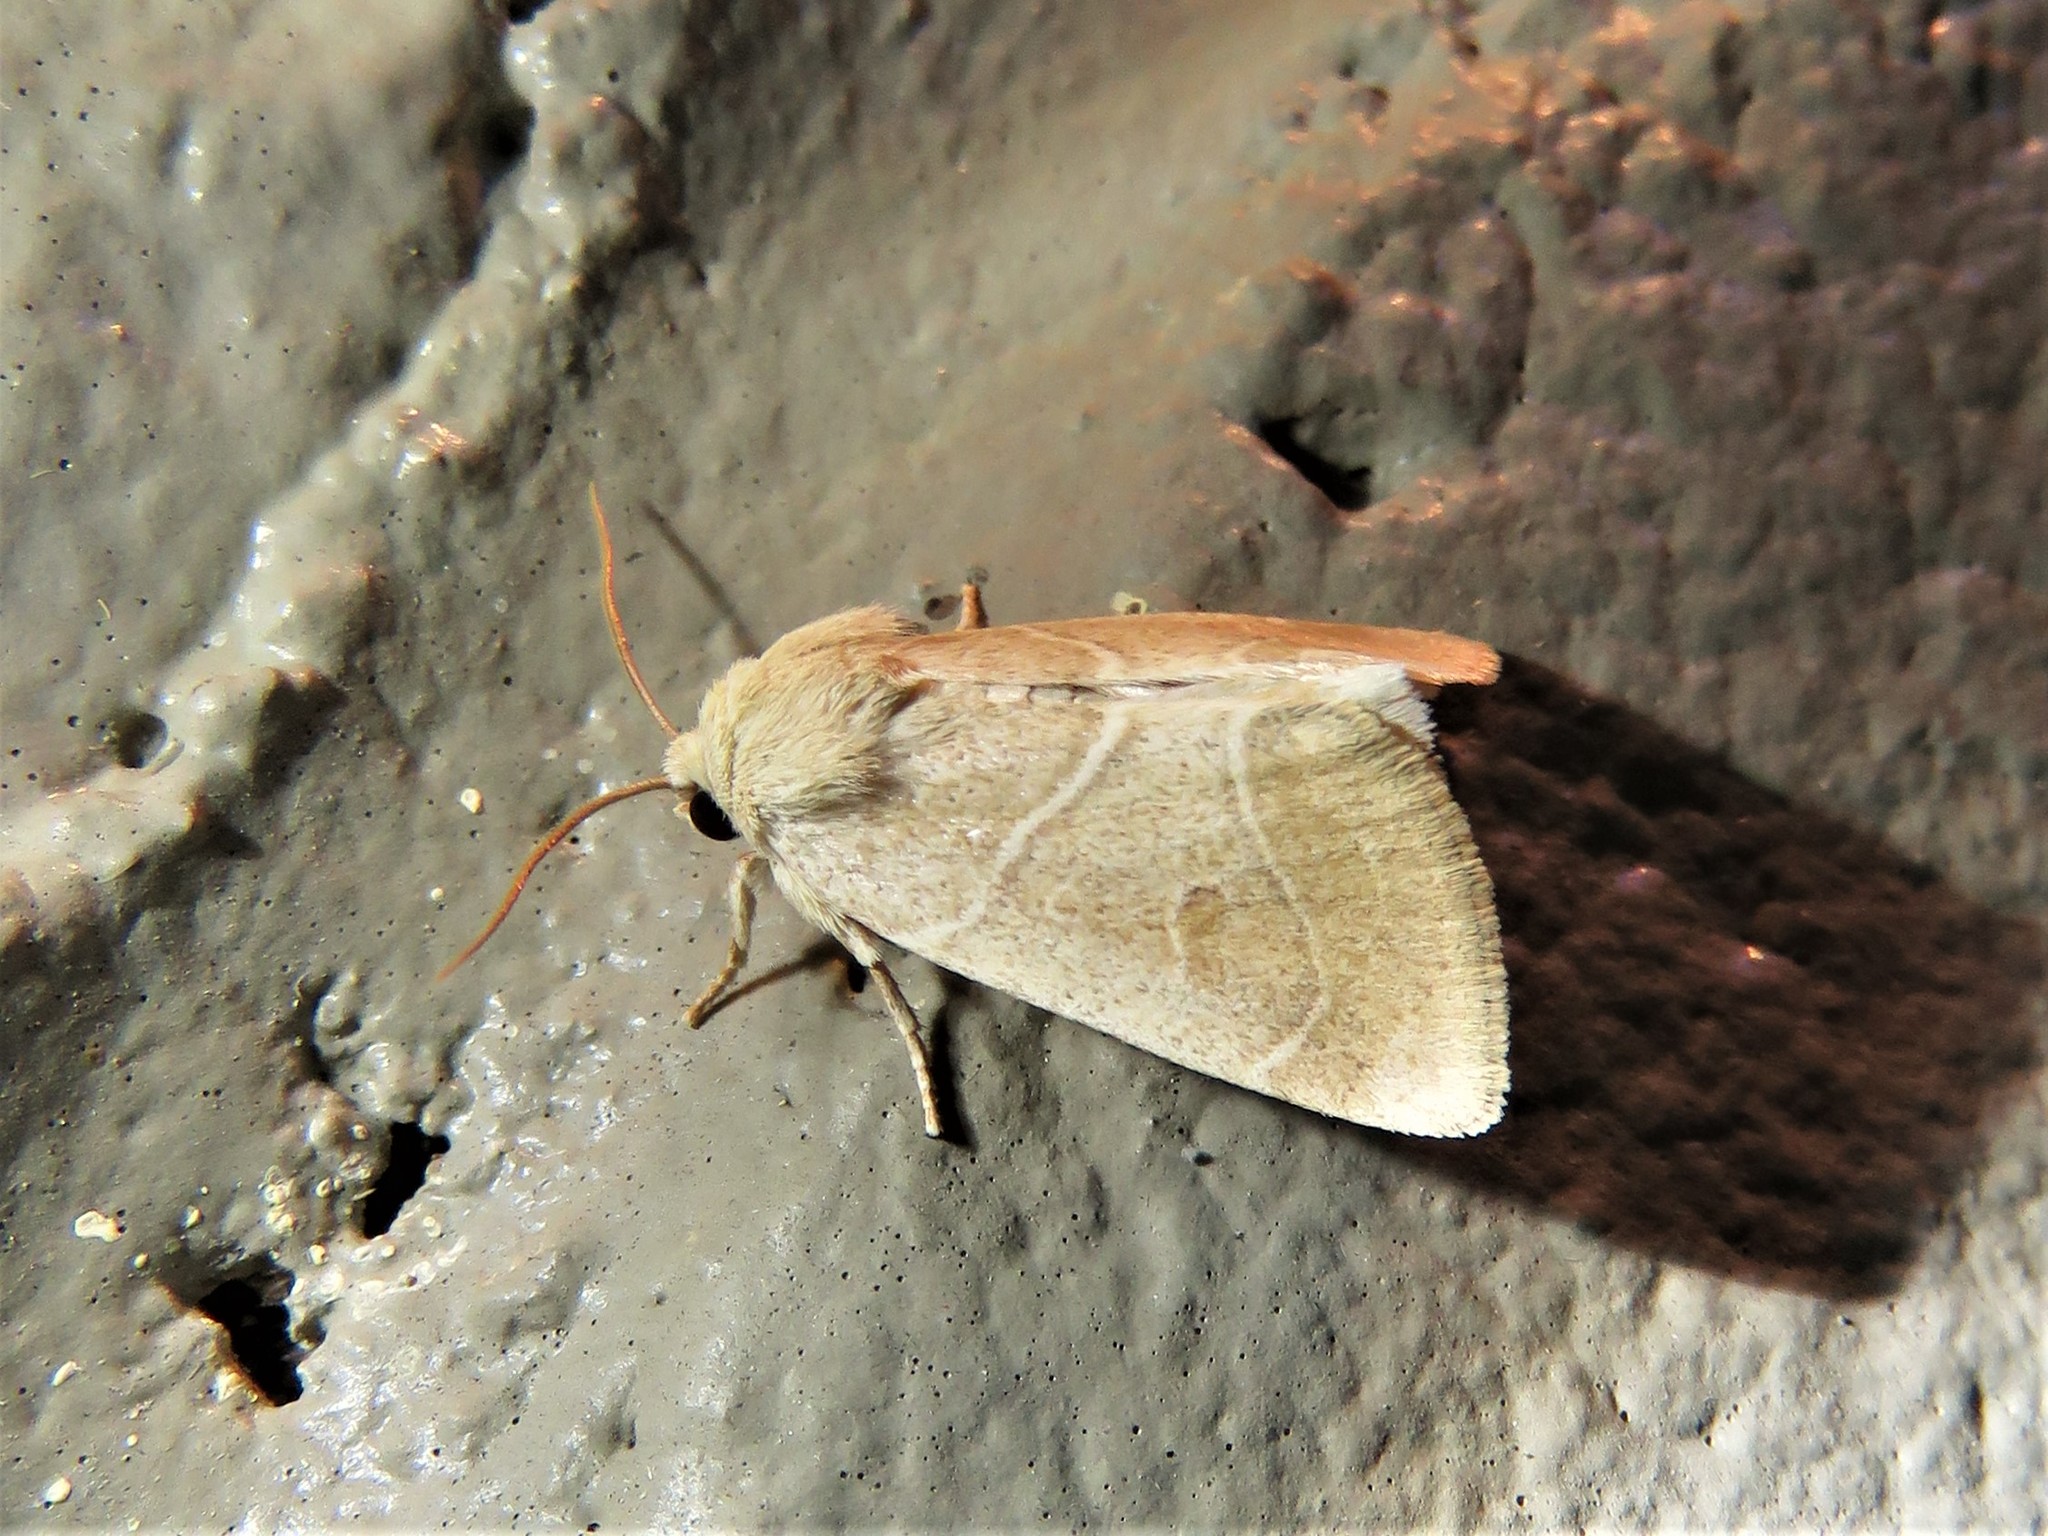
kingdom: Animalia
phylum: Arthropoda
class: Insecta
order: Lepidoptera
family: Noctuidae
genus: Cosmia
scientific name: Cosmia calami
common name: American dun-bar moth
